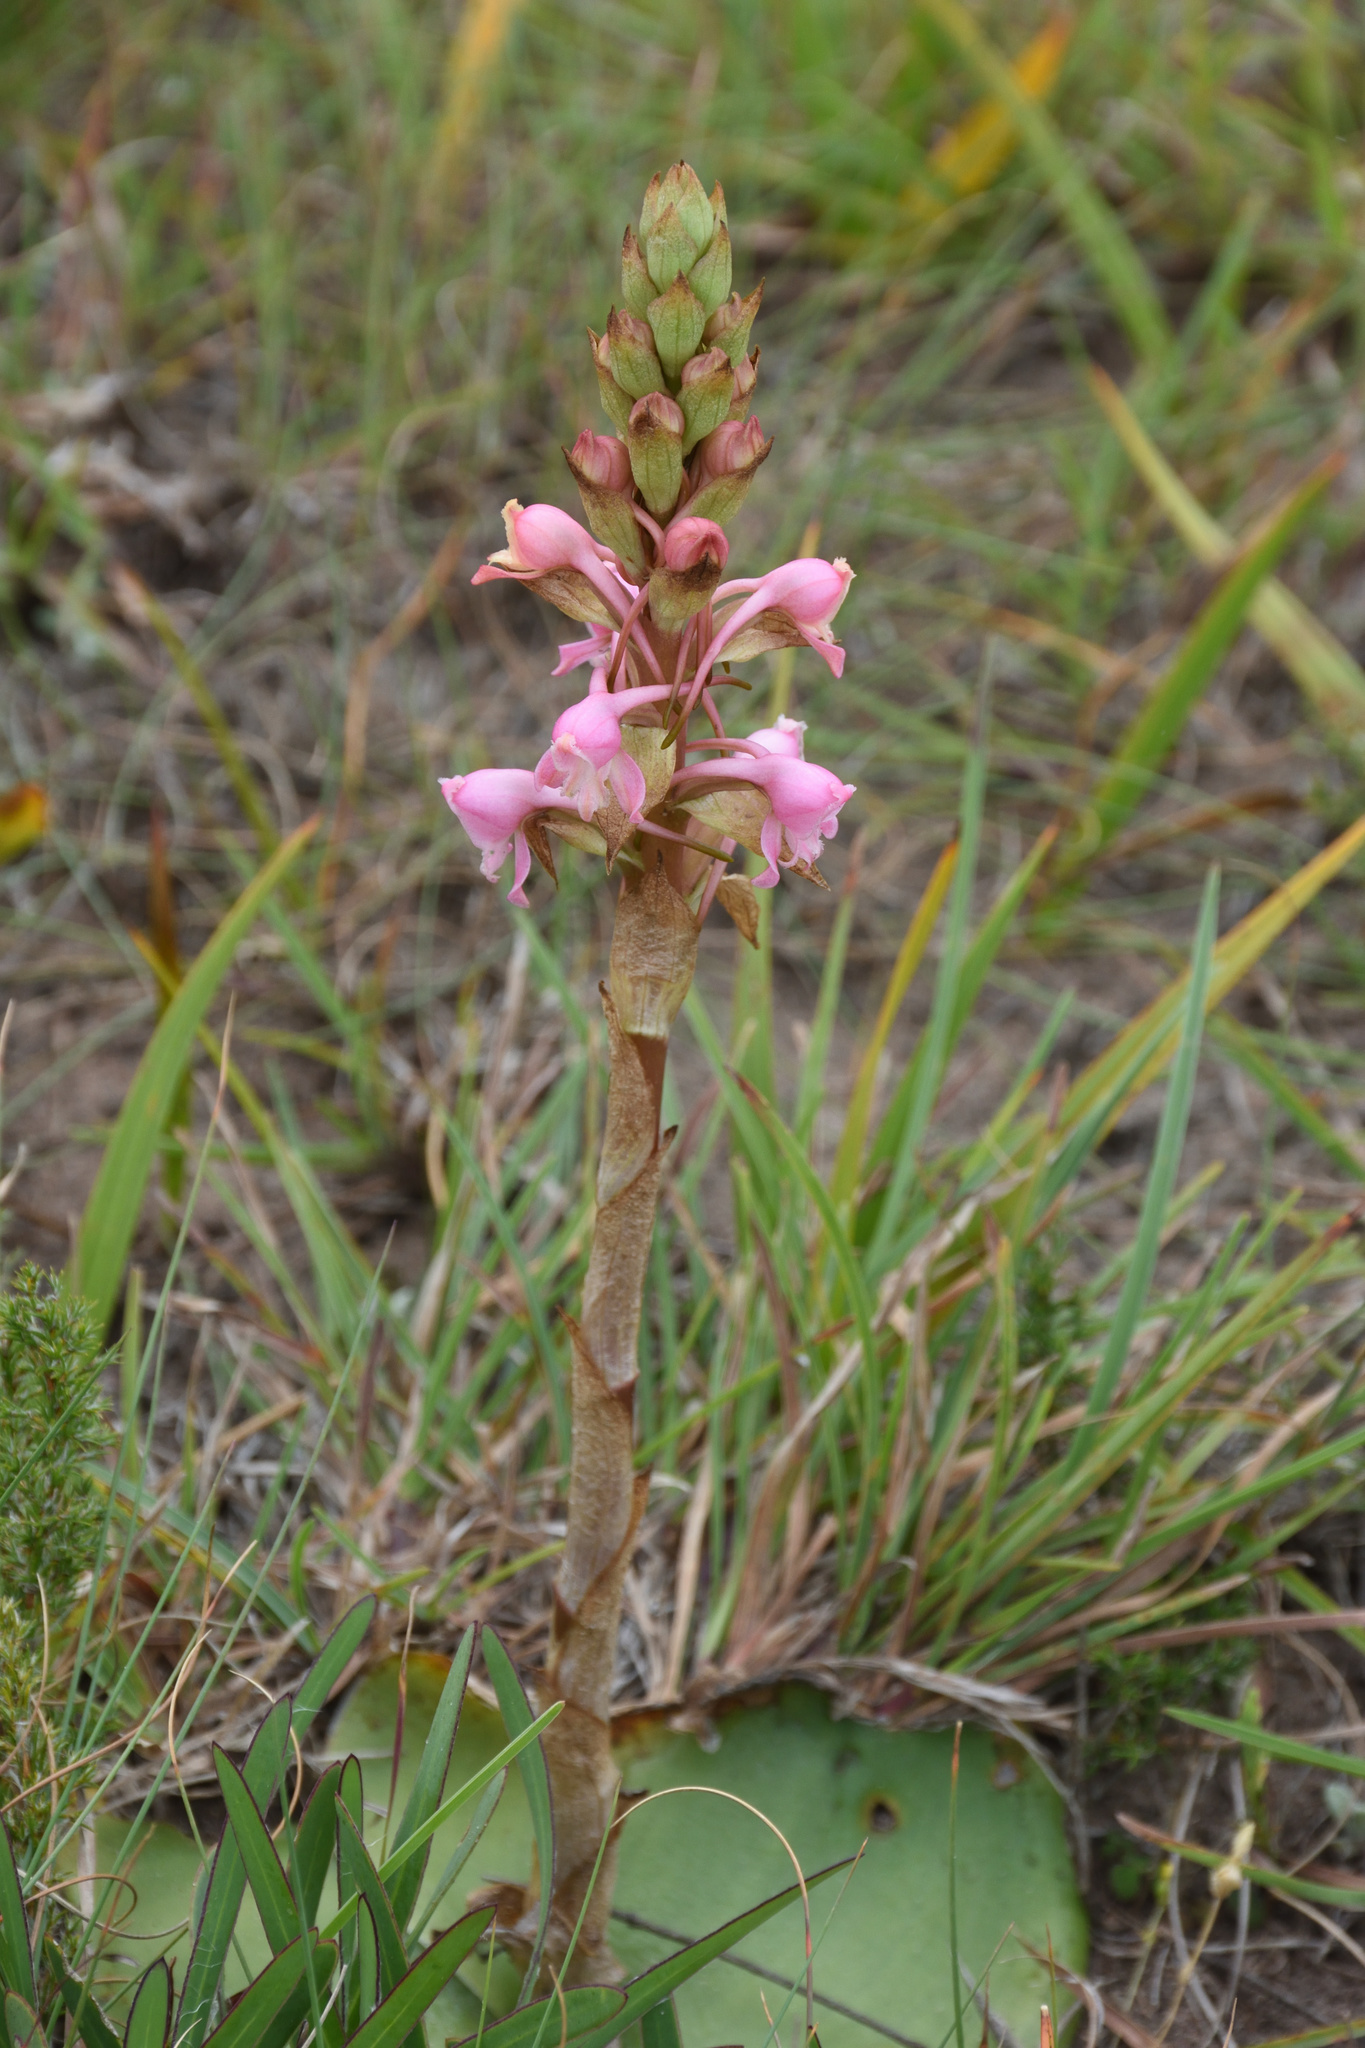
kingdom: Plantae
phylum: Tracheophyta
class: Liliopsida
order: Asparagales
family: Orchidaceae
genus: Satyrium
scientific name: Satyrium membranaceum
